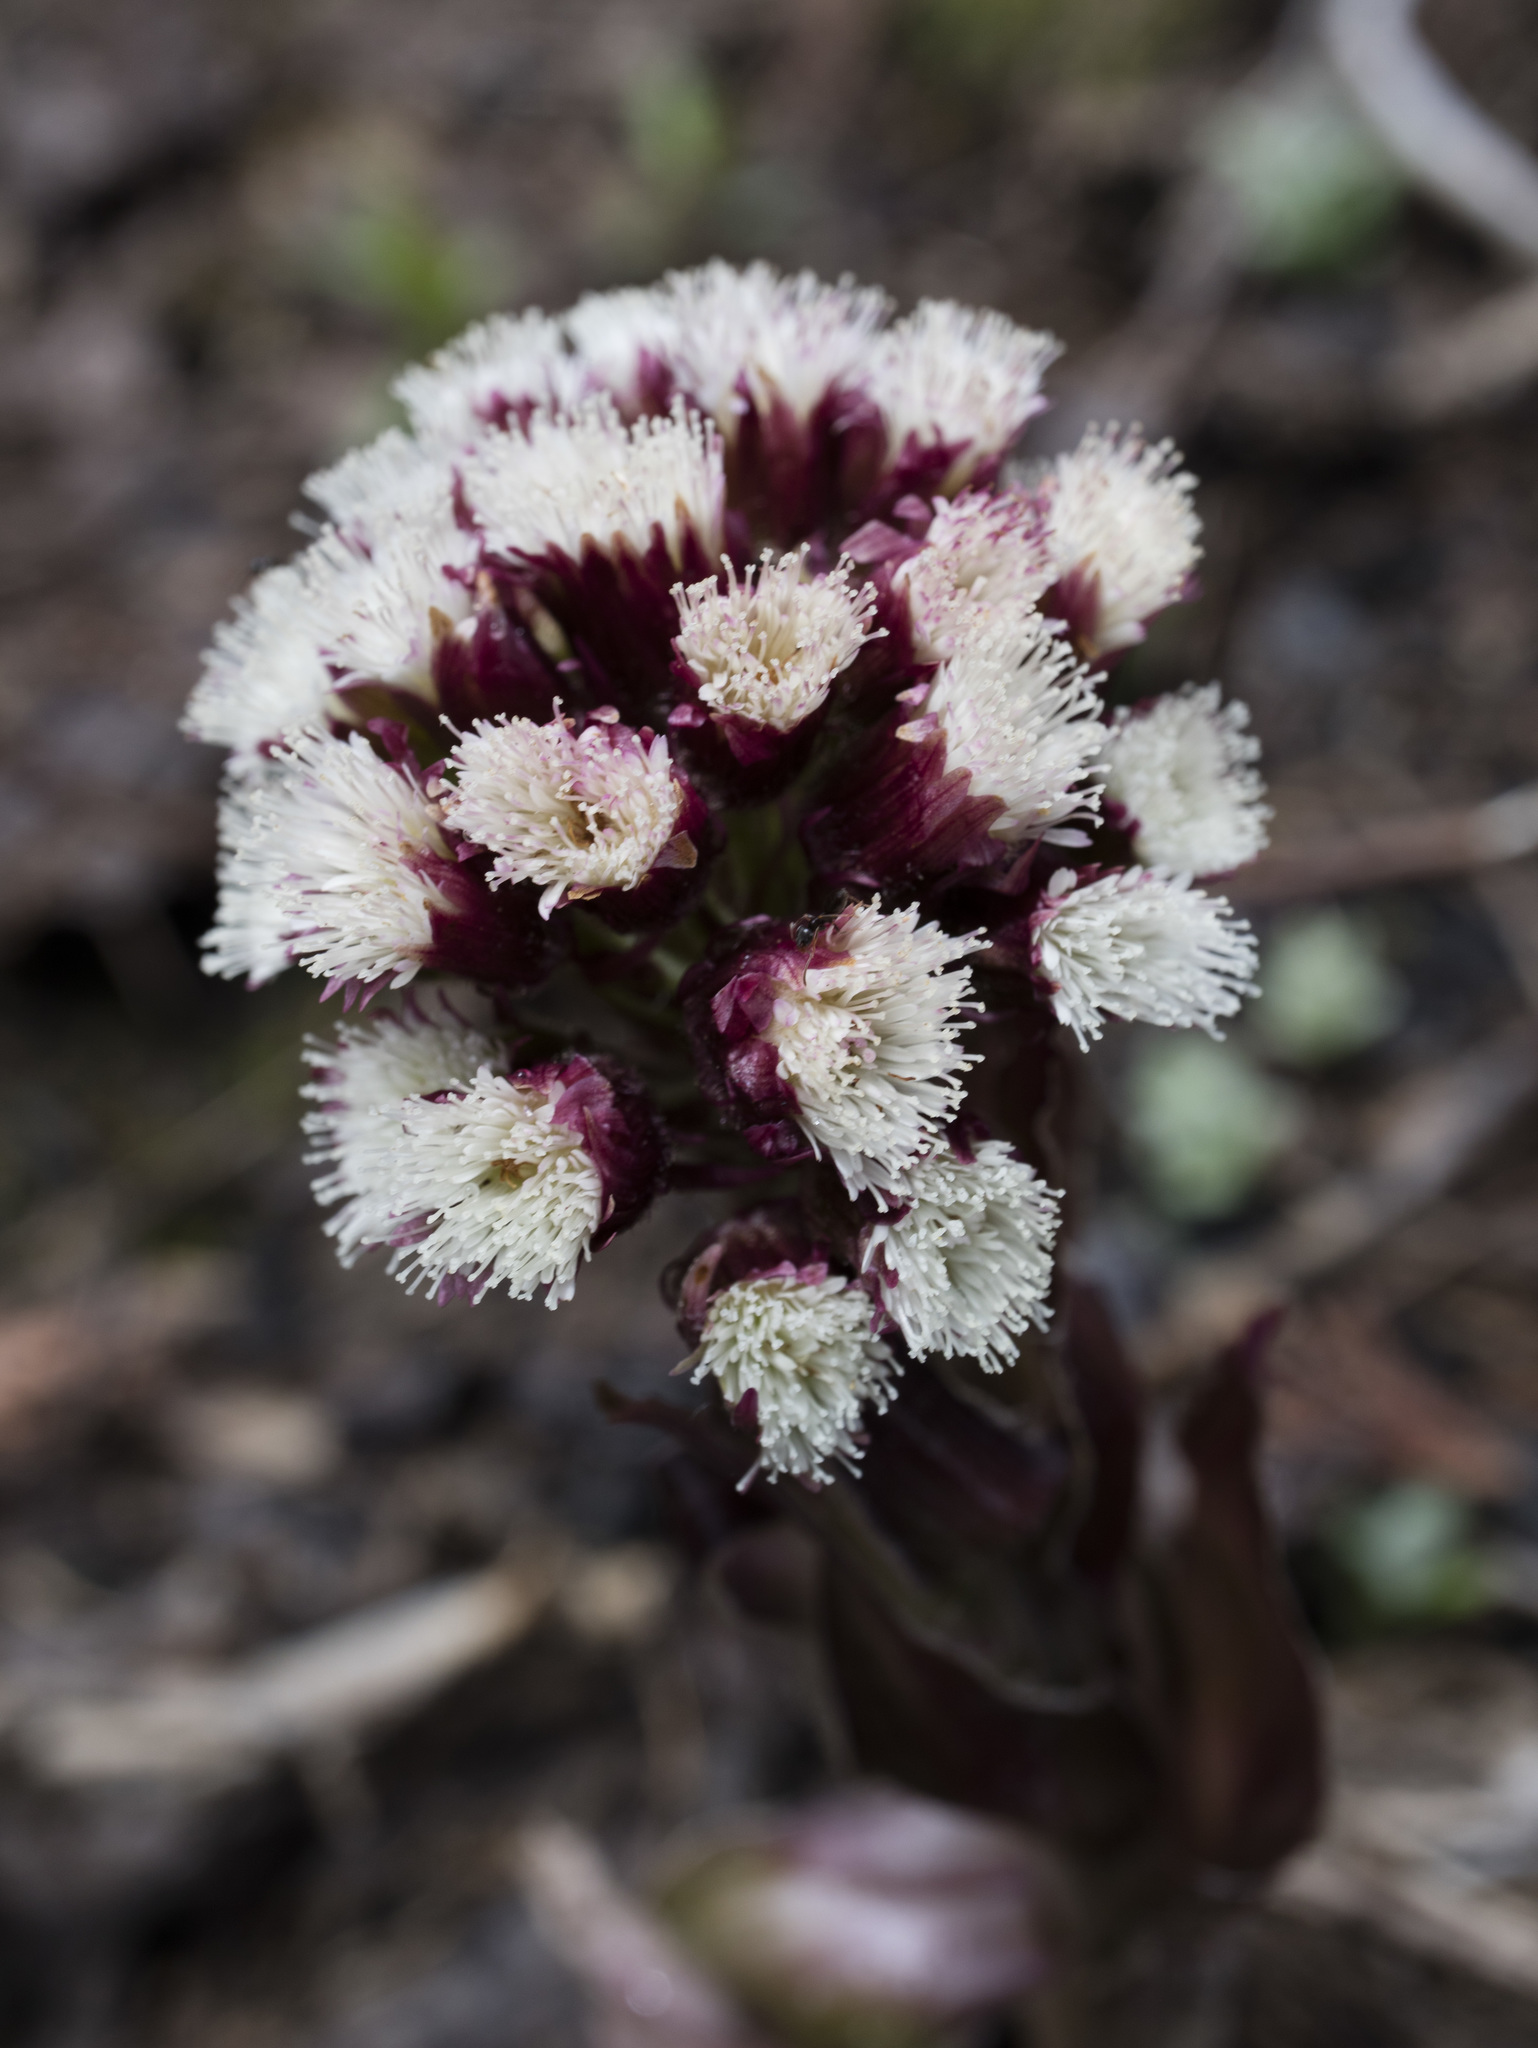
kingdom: Plantae
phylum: Tracheophyta
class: Magnoliopsida
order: Asterales
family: Asteraceae
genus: Petasites
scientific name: Petasites frigidus
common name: Arctic butterbur
